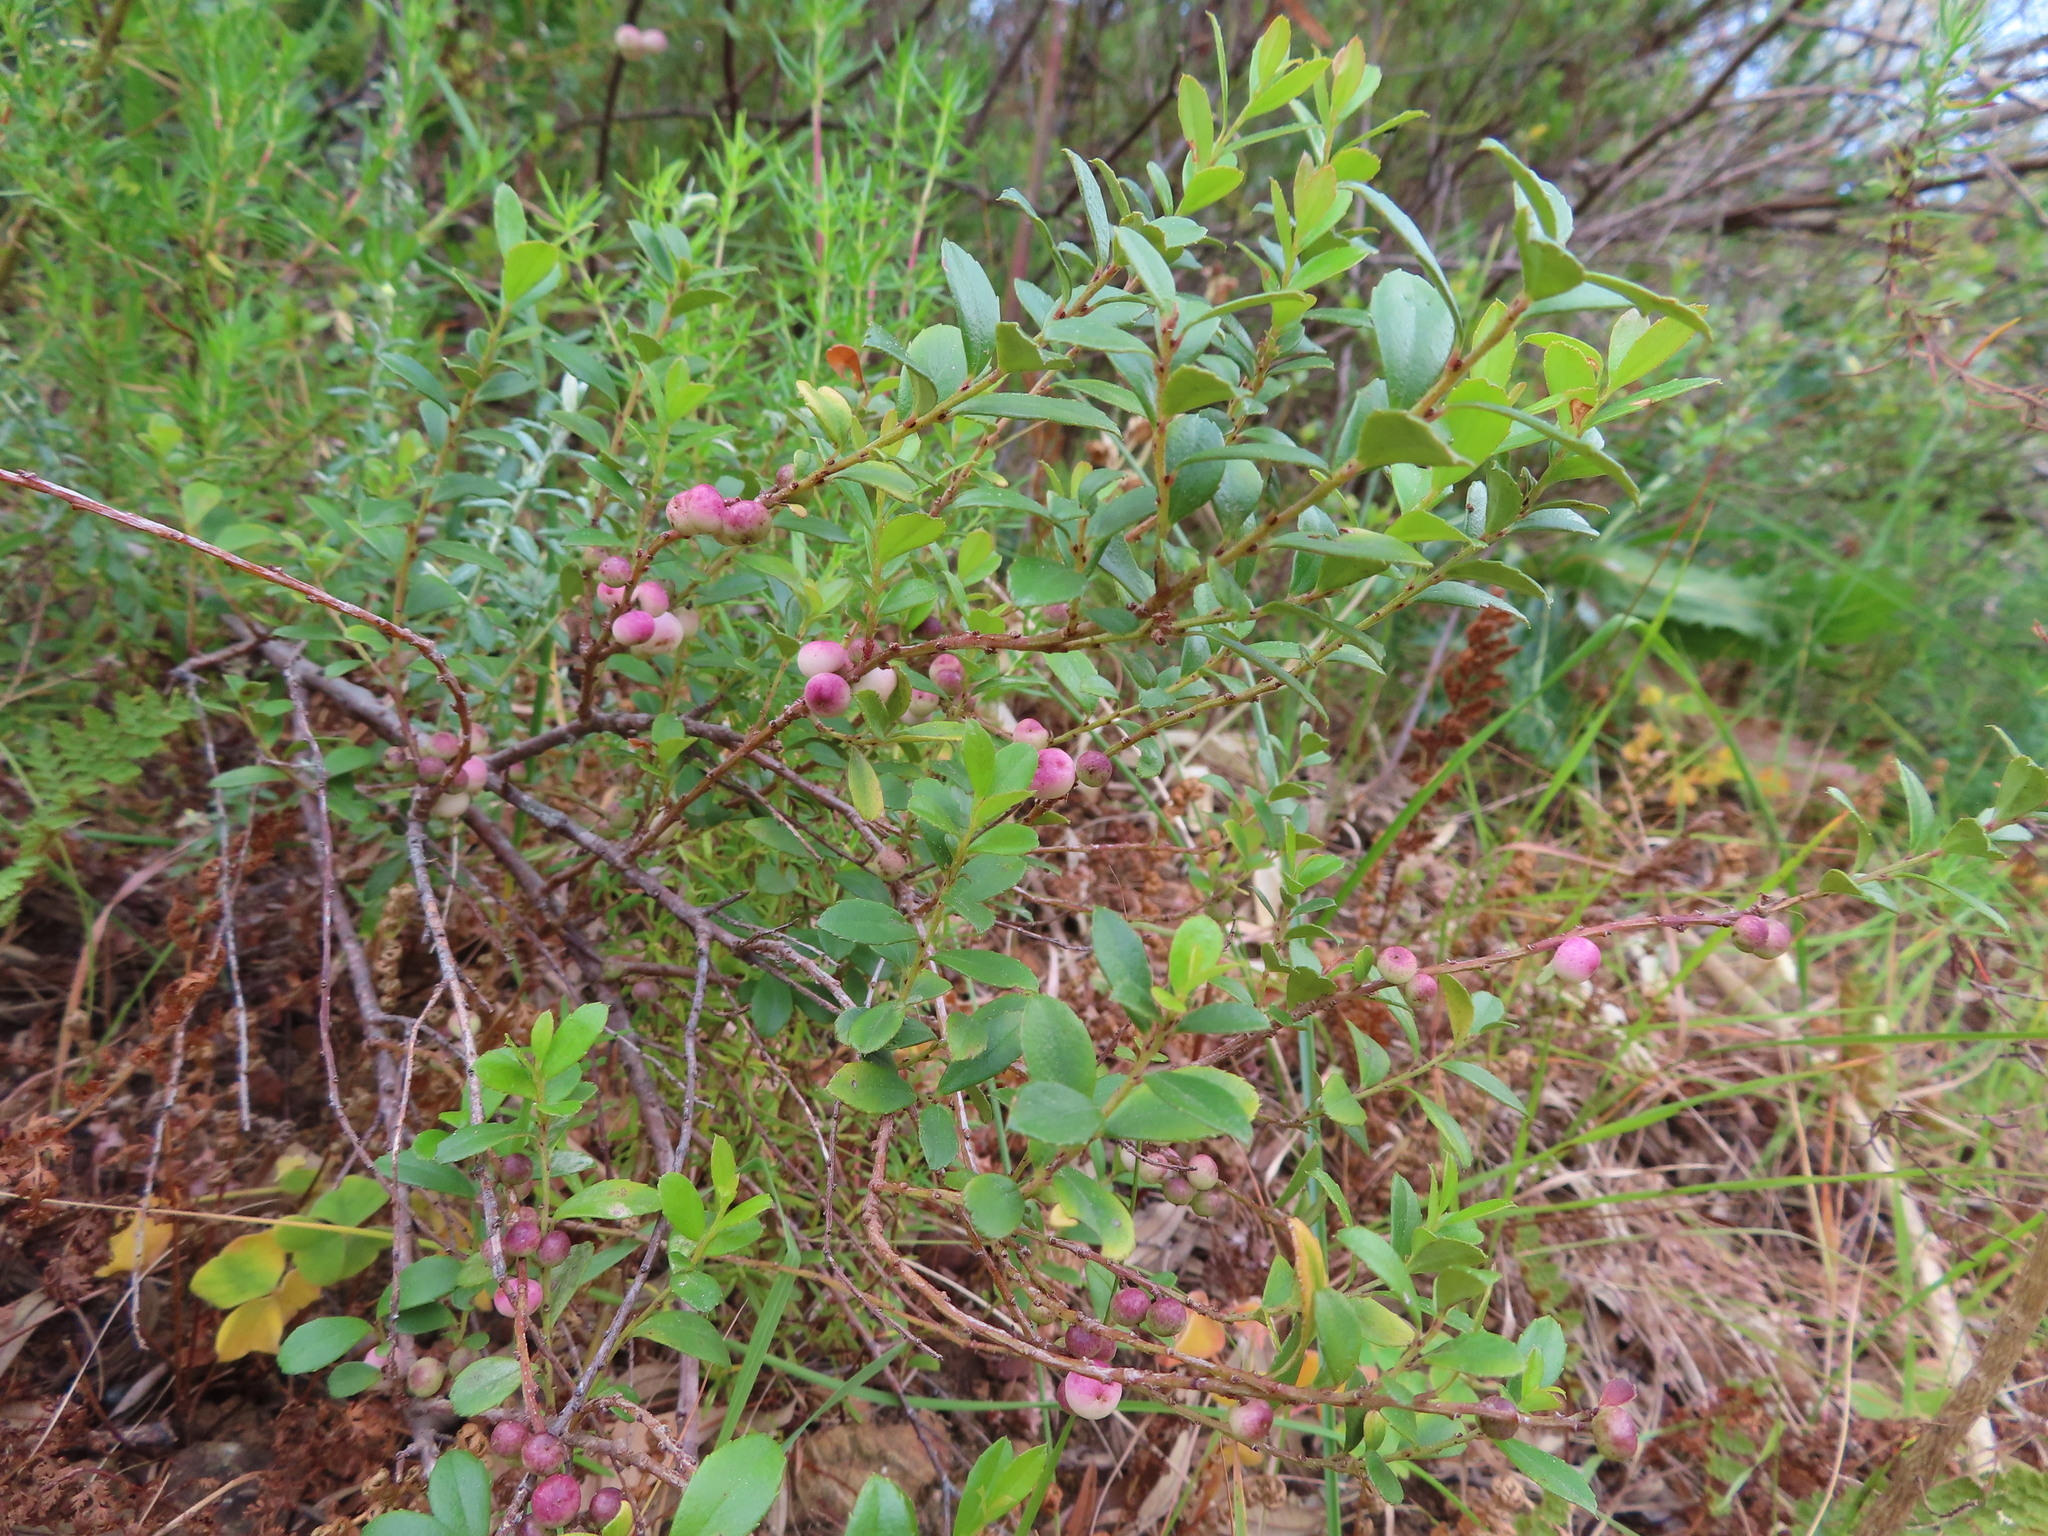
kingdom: Plantae
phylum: Tracheophyta
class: Magnoliopsida
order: Ericales
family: Primulaceae
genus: Myrsine
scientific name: Myrsine africana
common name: African-boxwood
